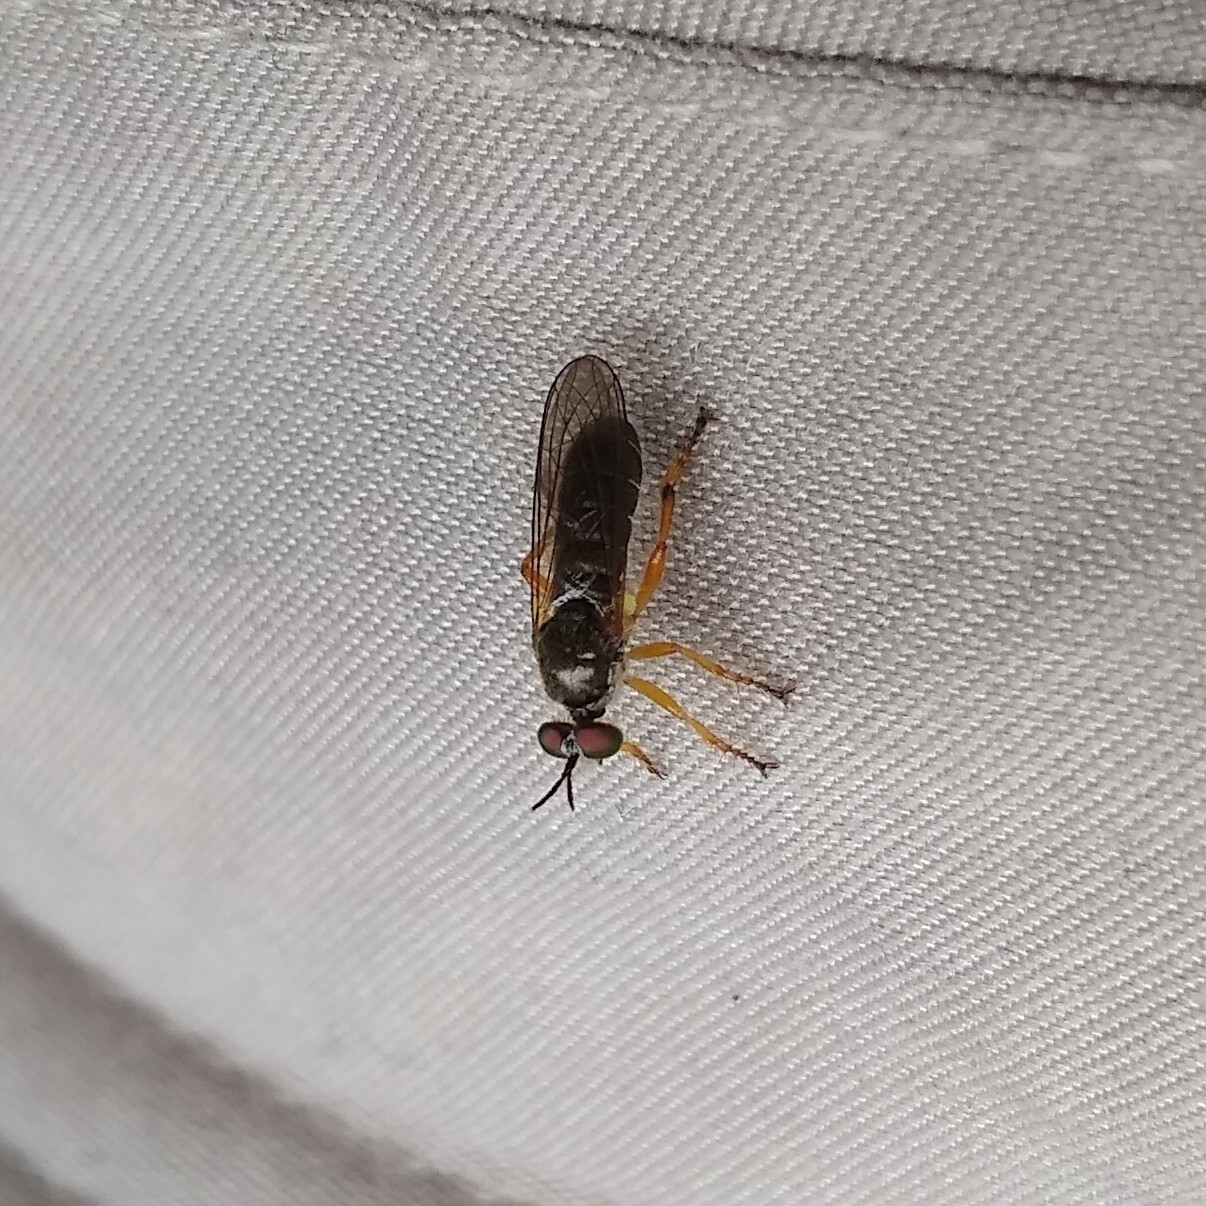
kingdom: Animalia
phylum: Arthropoda
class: Insecta
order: Diptera
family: Asilidae
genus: Atomosia
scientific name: Atomosia rufipes
